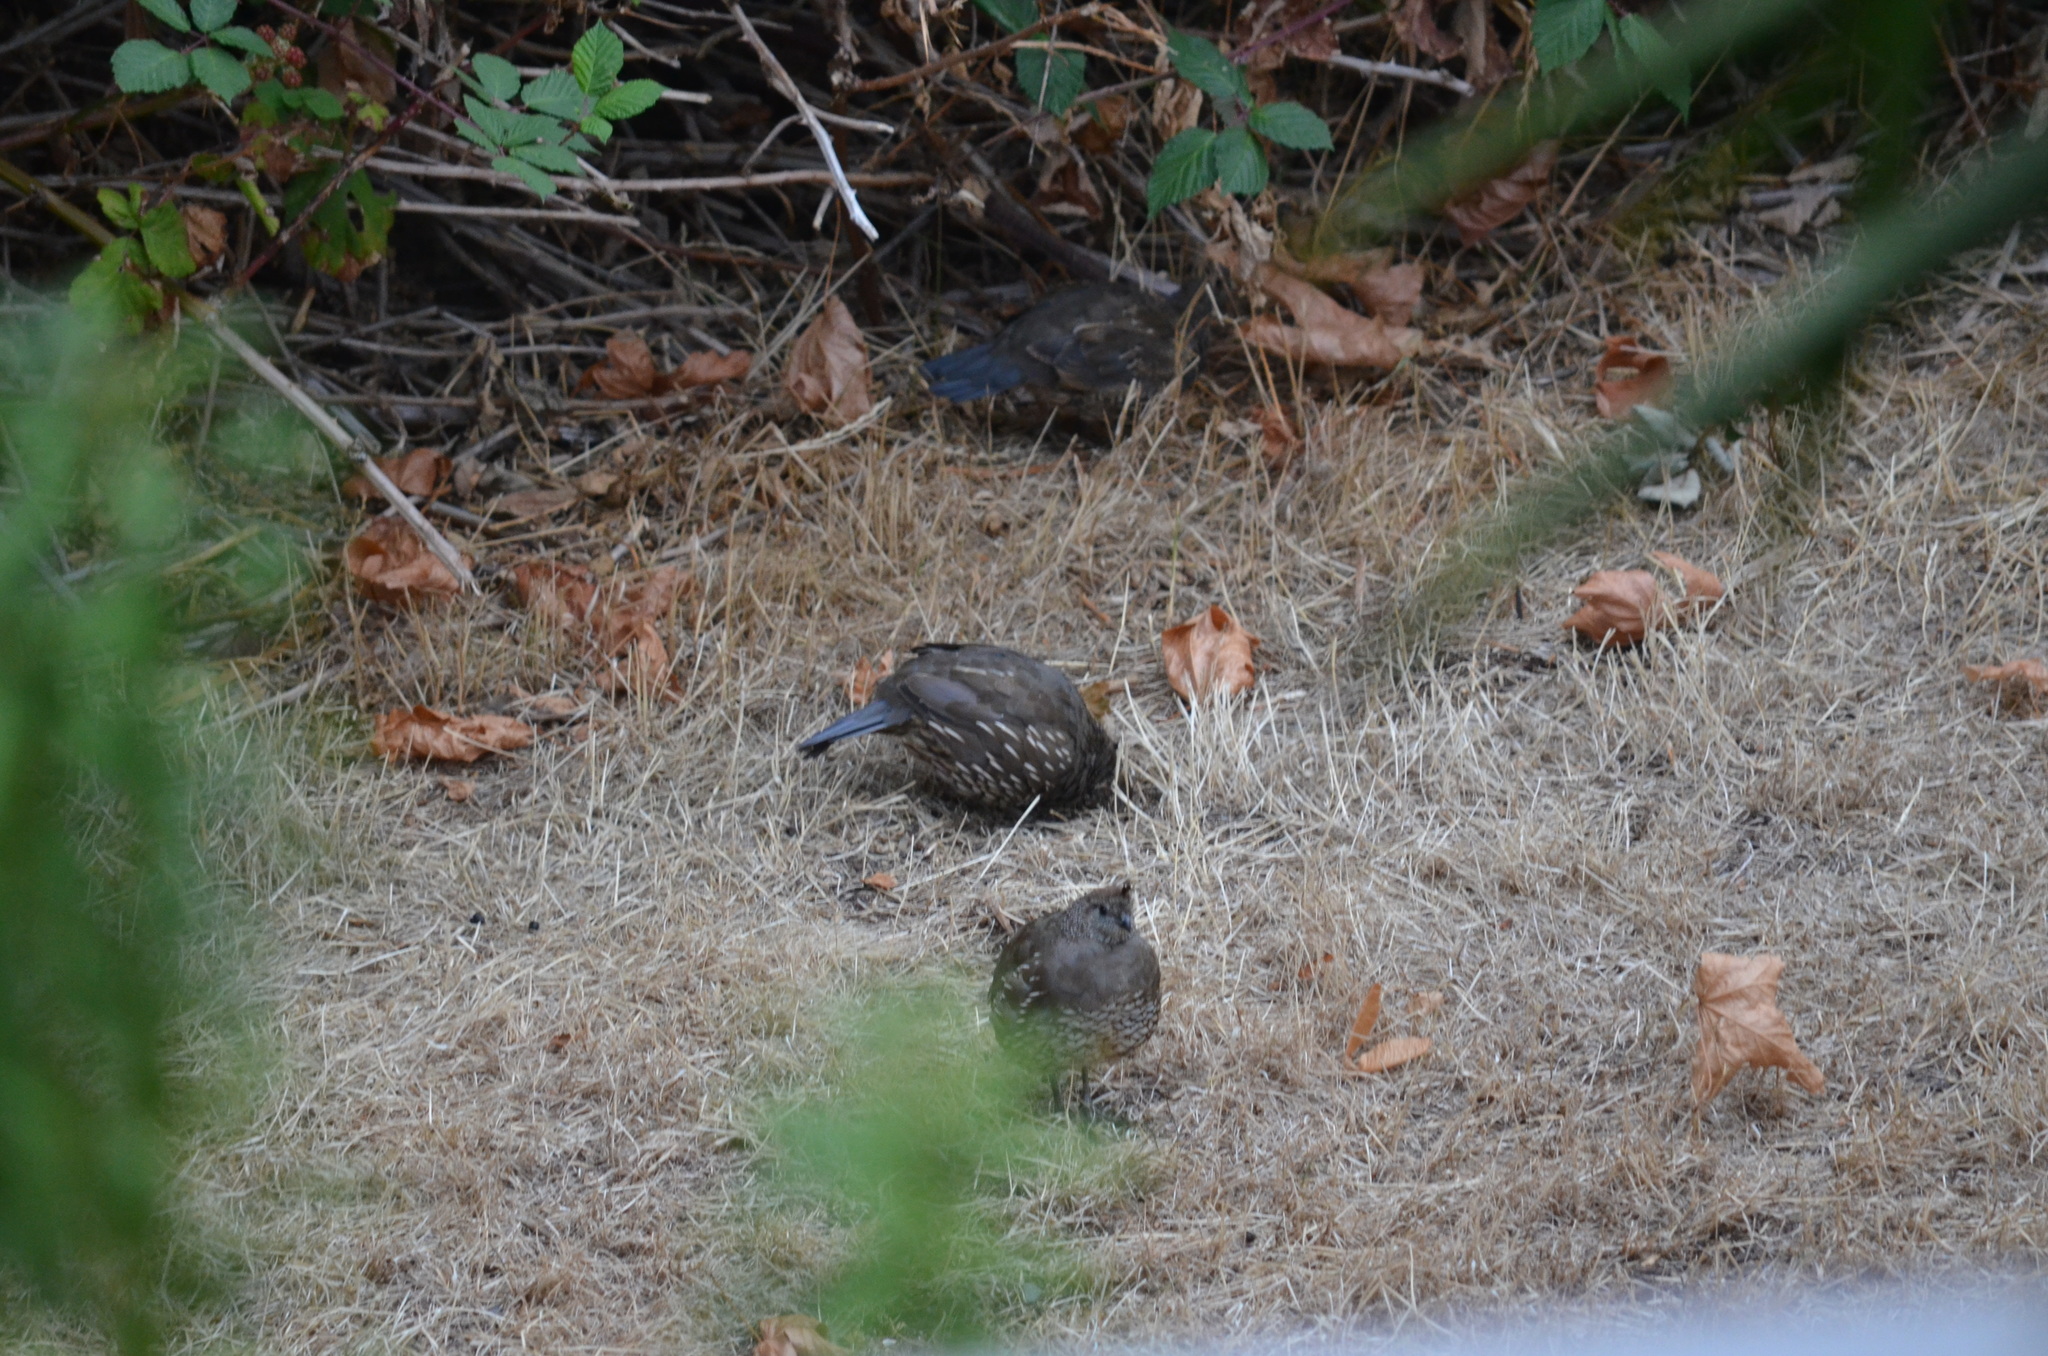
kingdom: Animalia
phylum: Chordata
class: Aves
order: Galliformes
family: Odontophoridae
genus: Callipepla
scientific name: Callipepla californica
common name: California quail
